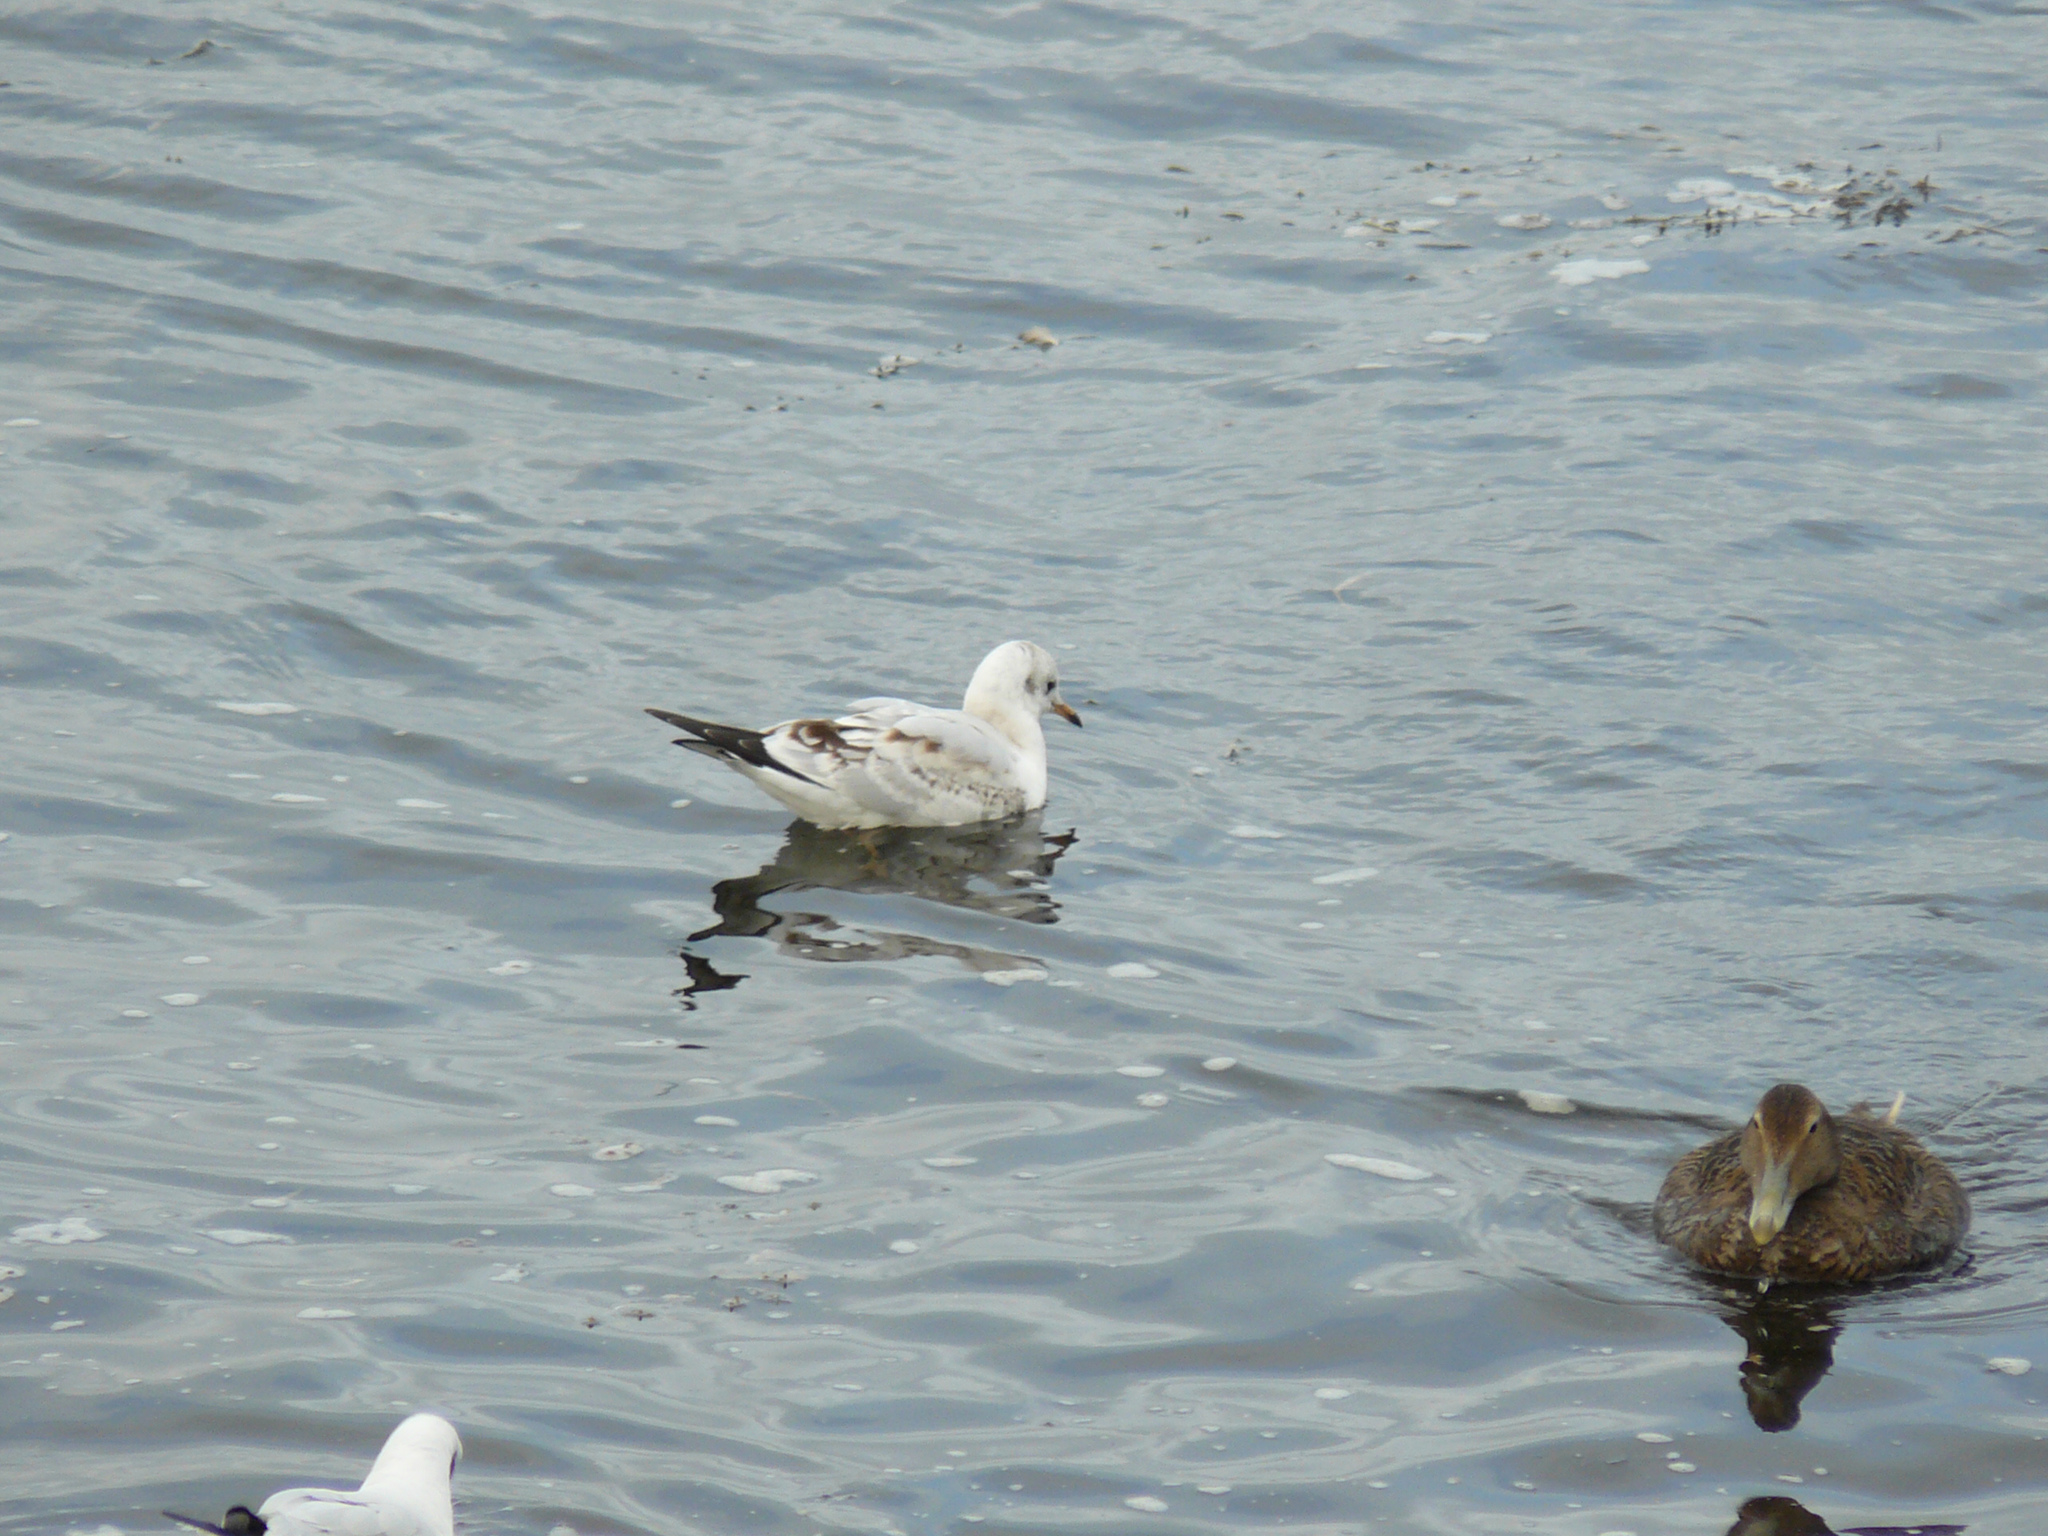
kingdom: Animalia
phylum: Chordata
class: Aves
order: Charadriiformes
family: Laridae
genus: Chroicocephalus
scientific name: Chroicocephalus ridibundus
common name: Black-headed gull
